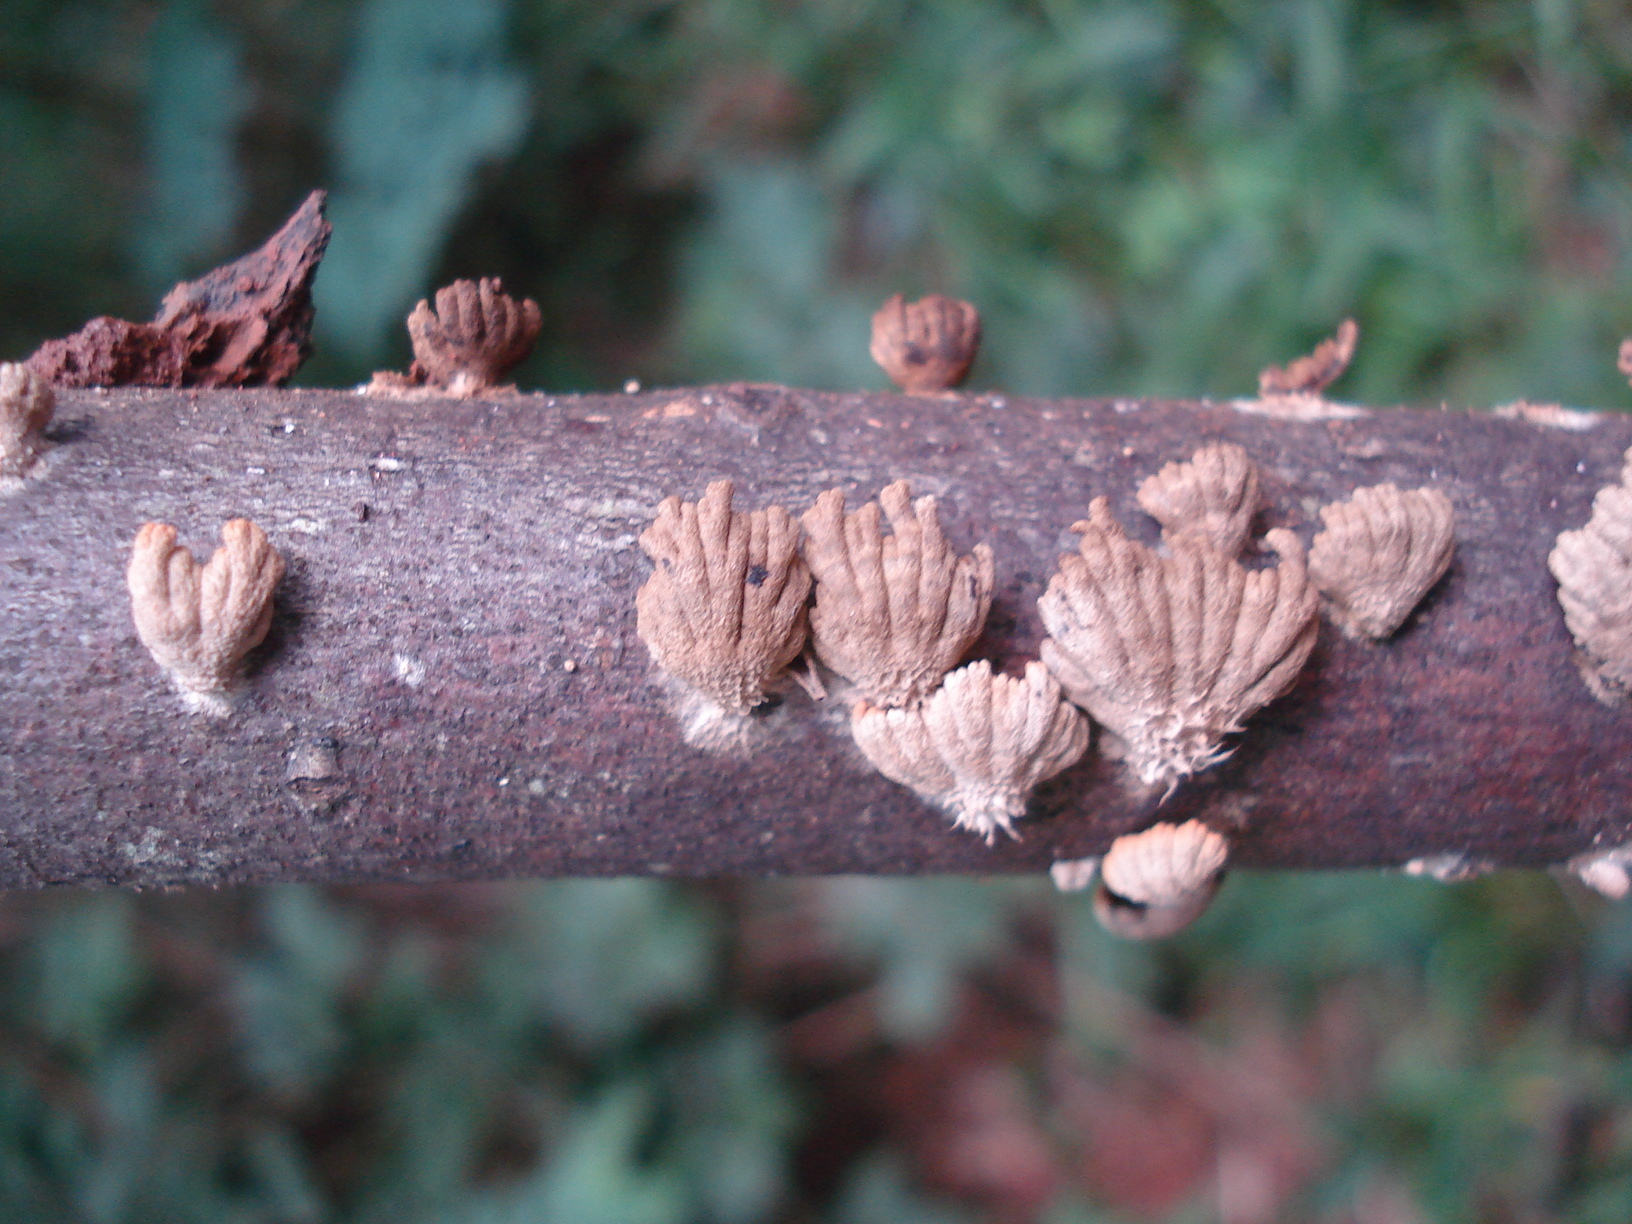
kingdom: Fungi
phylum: Basidiomycota
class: Agaricomycetes
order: Agaricales
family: Schizophyllaceae
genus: Schizophyllum
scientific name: Schizophyllum commune
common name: Common porecrust
